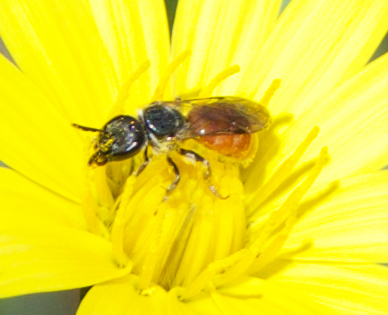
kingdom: Animalia
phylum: Arthropoda
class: Insecta
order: Hymenoptera
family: Halictidae
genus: Lasioglossum
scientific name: Lasioglossum ovaliceps
